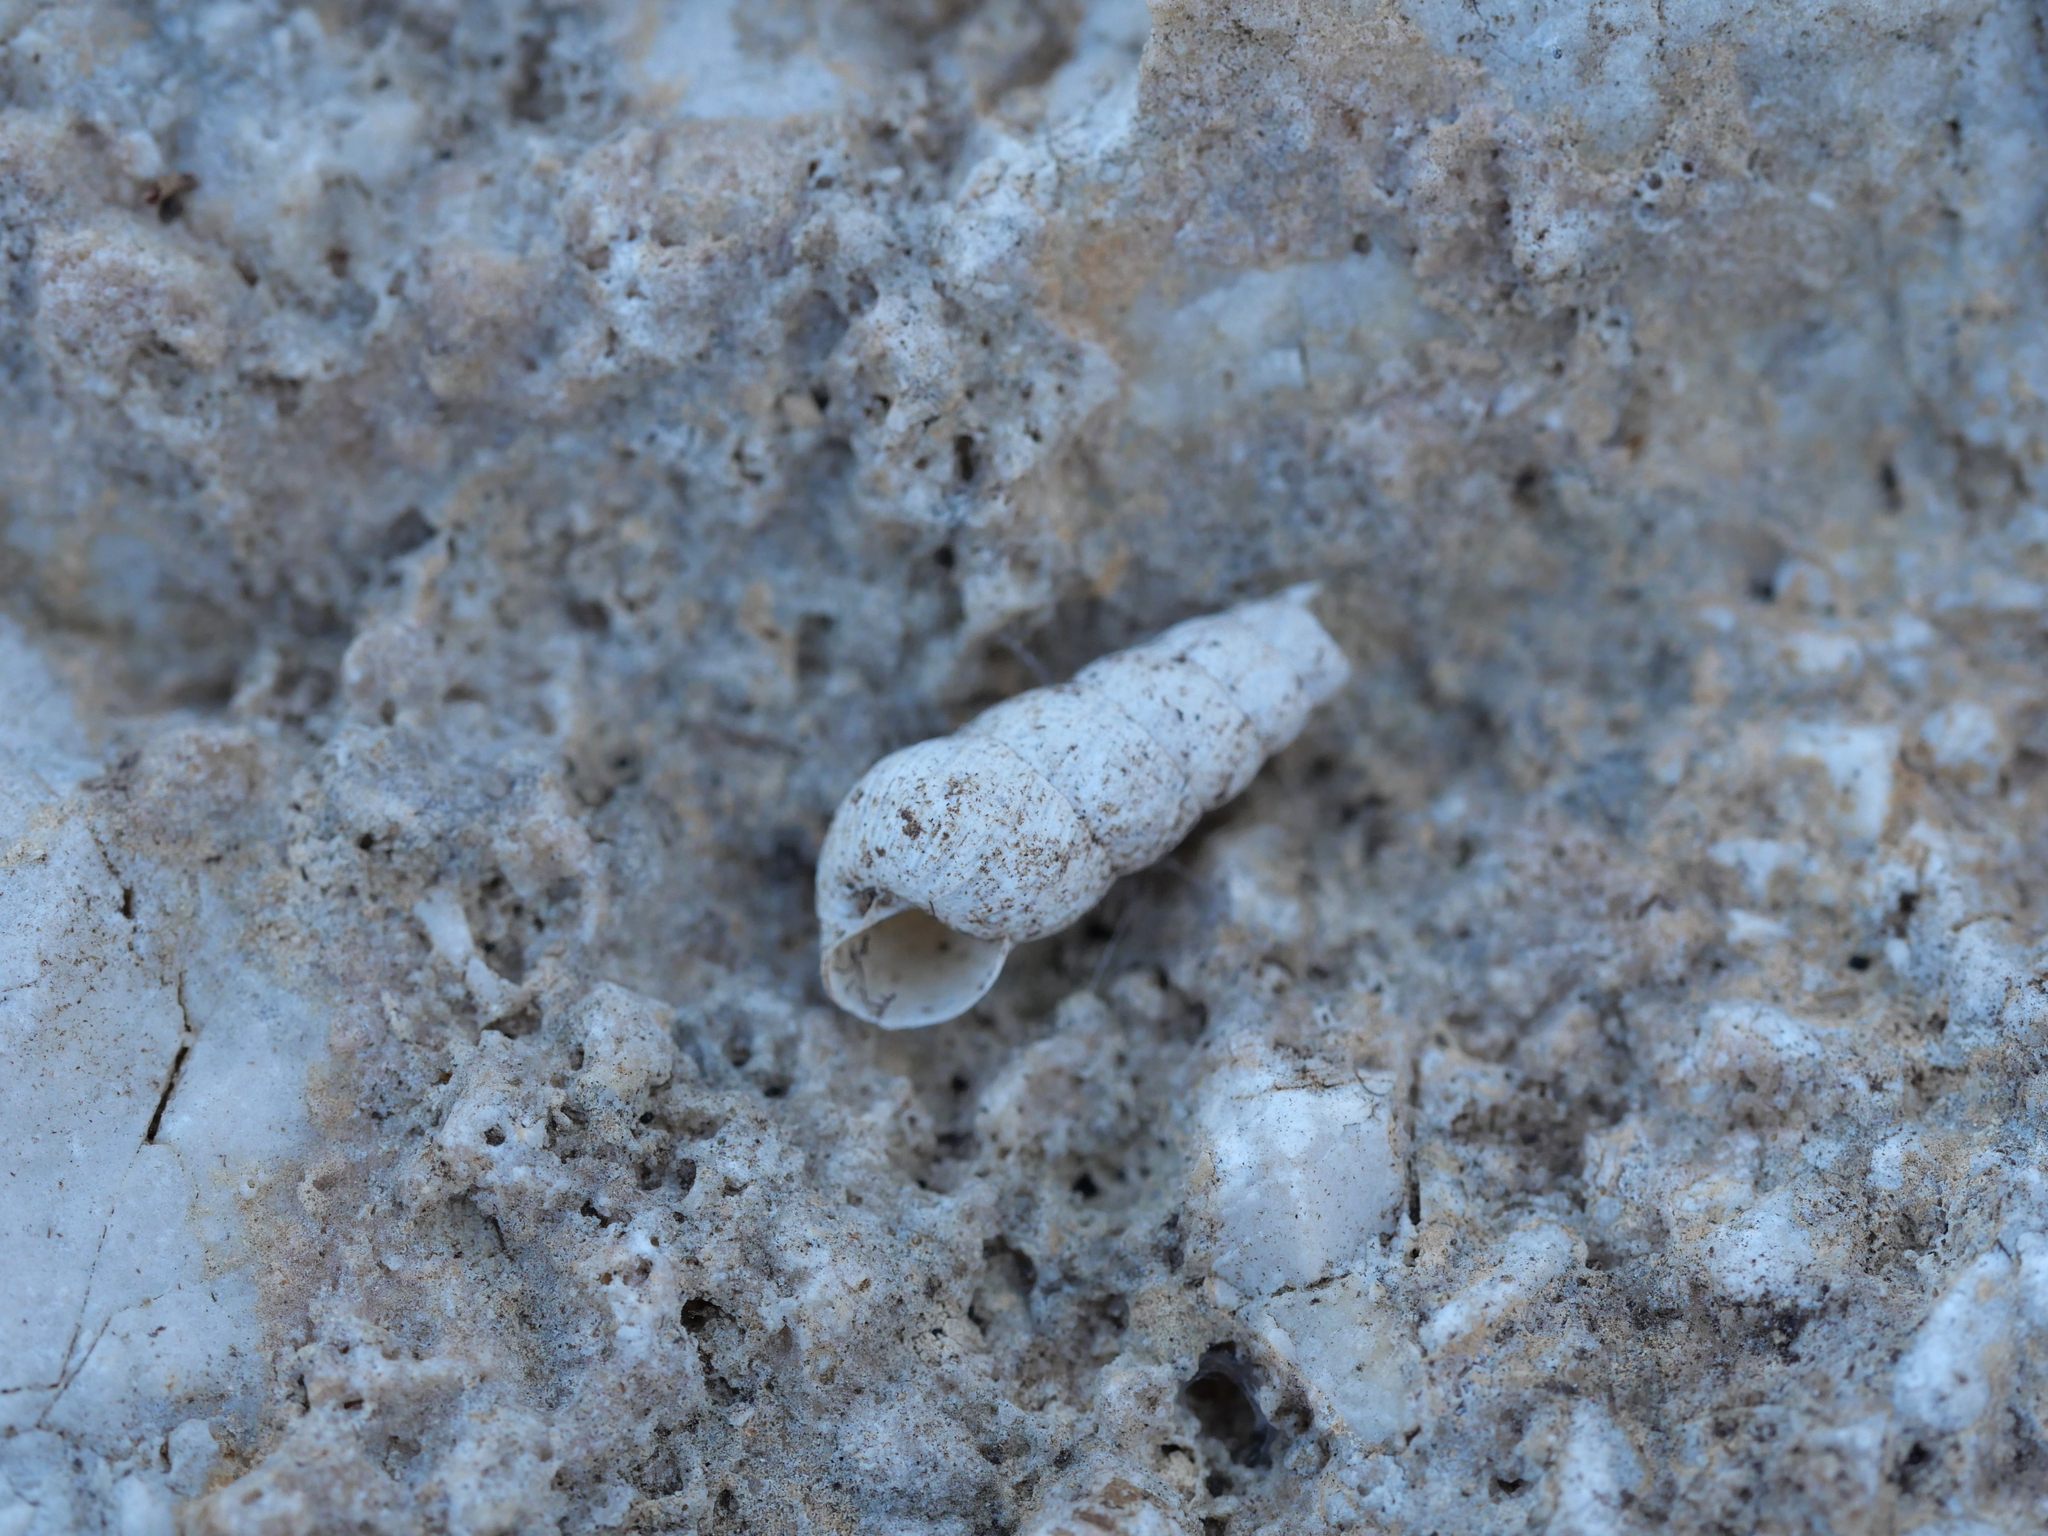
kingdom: Animalia
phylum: Mollusca
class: Gastropoda
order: Stylommatophora
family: Achatinidae
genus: Rumina
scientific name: Rumina saharica
